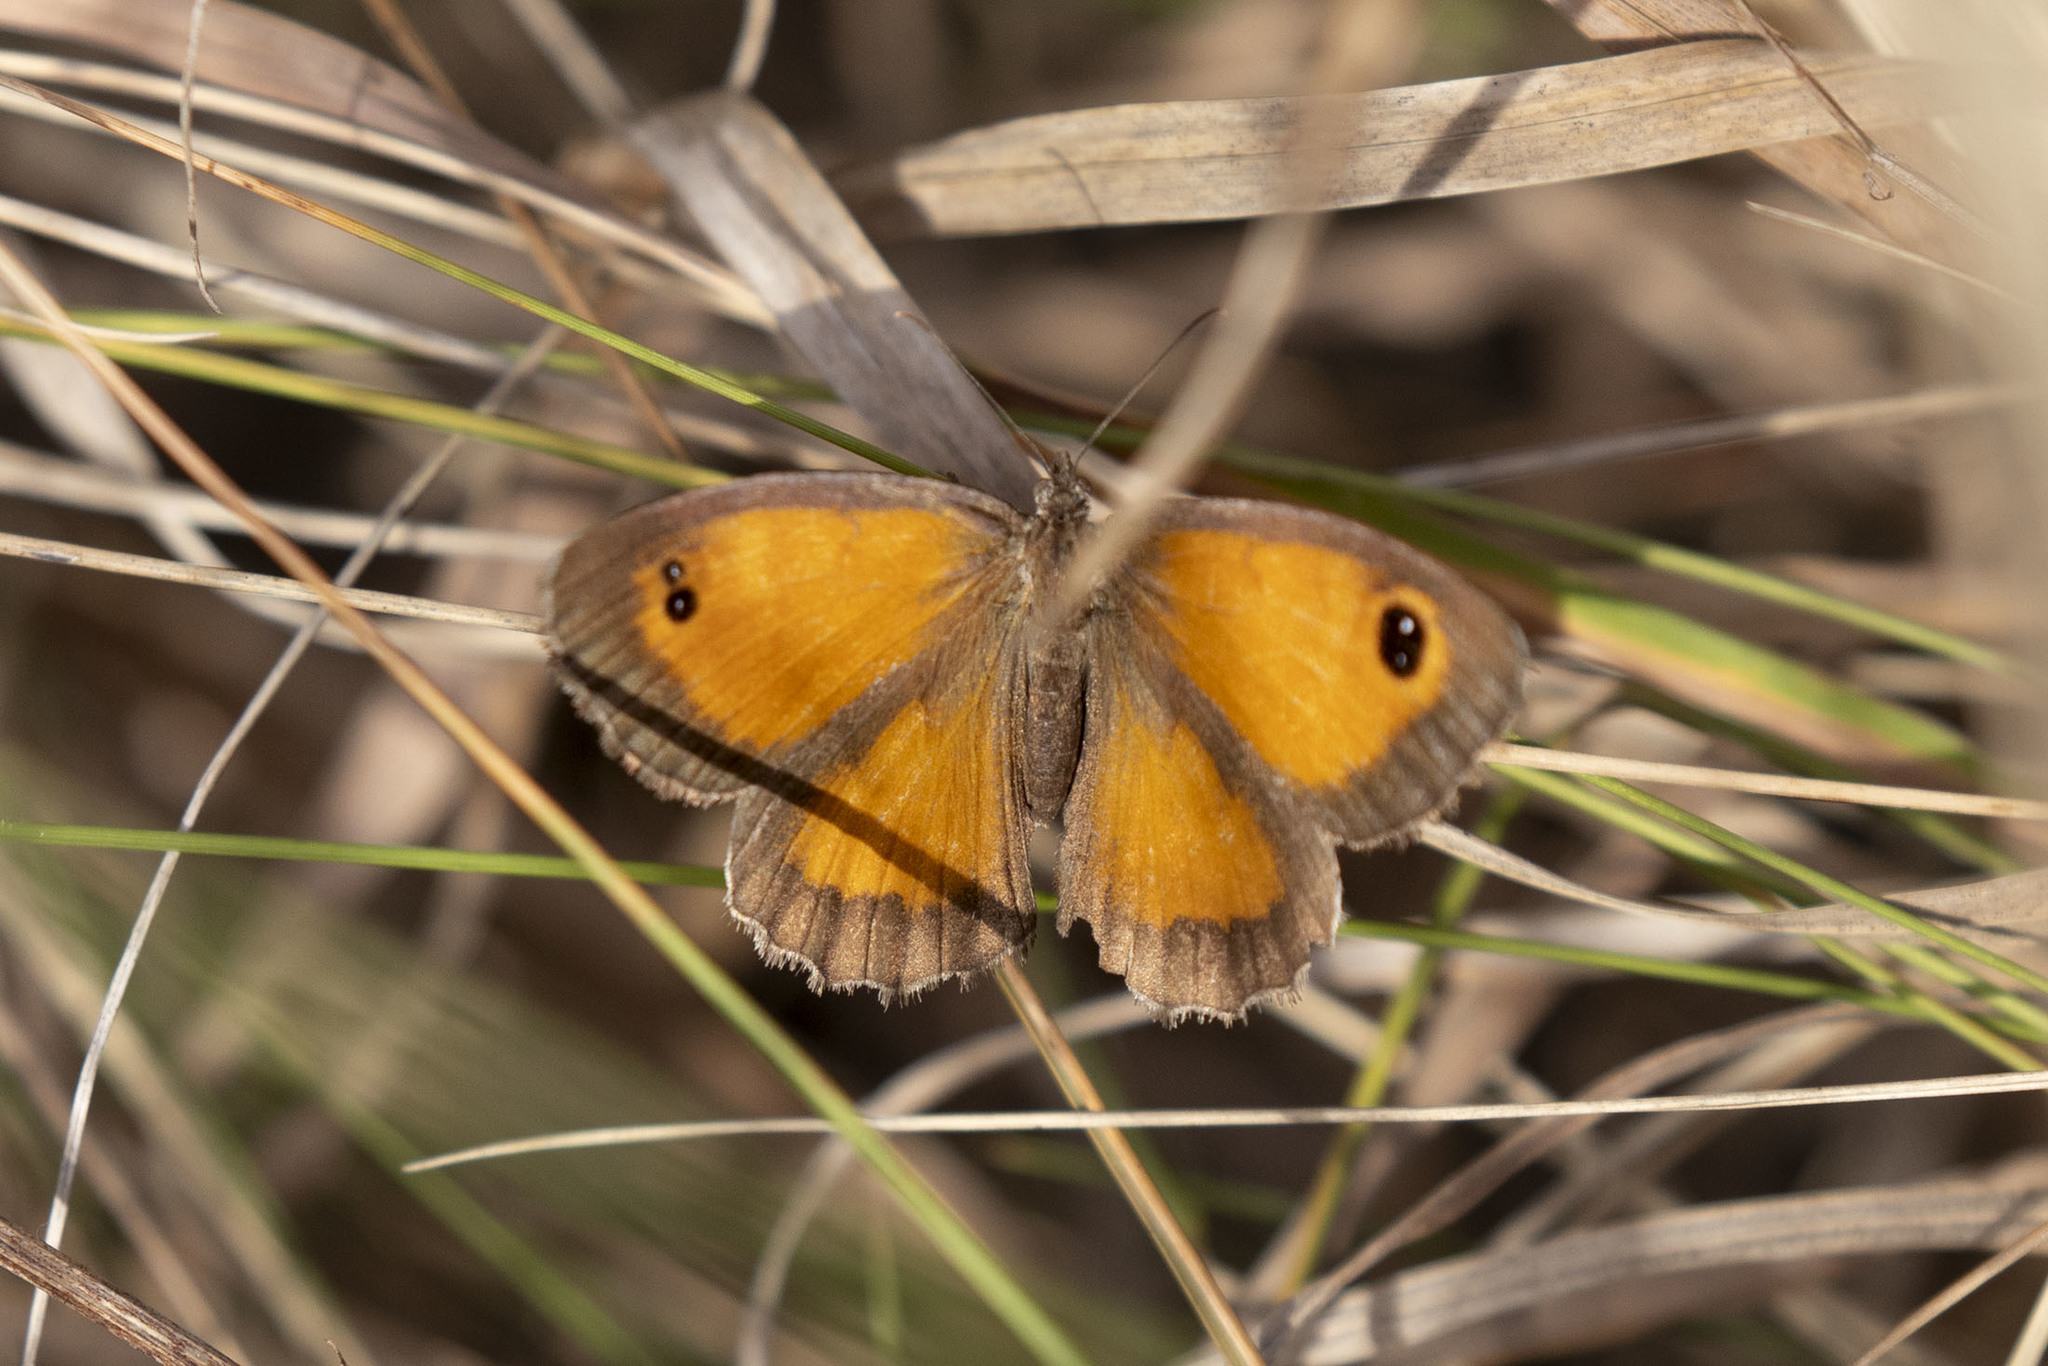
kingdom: Animalia
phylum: Arthropoda
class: Insecta
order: Lepidoptera
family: Nymphalidae
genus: Pyronia
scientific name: Pyronia cecilia
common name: Southern gatekeeper
